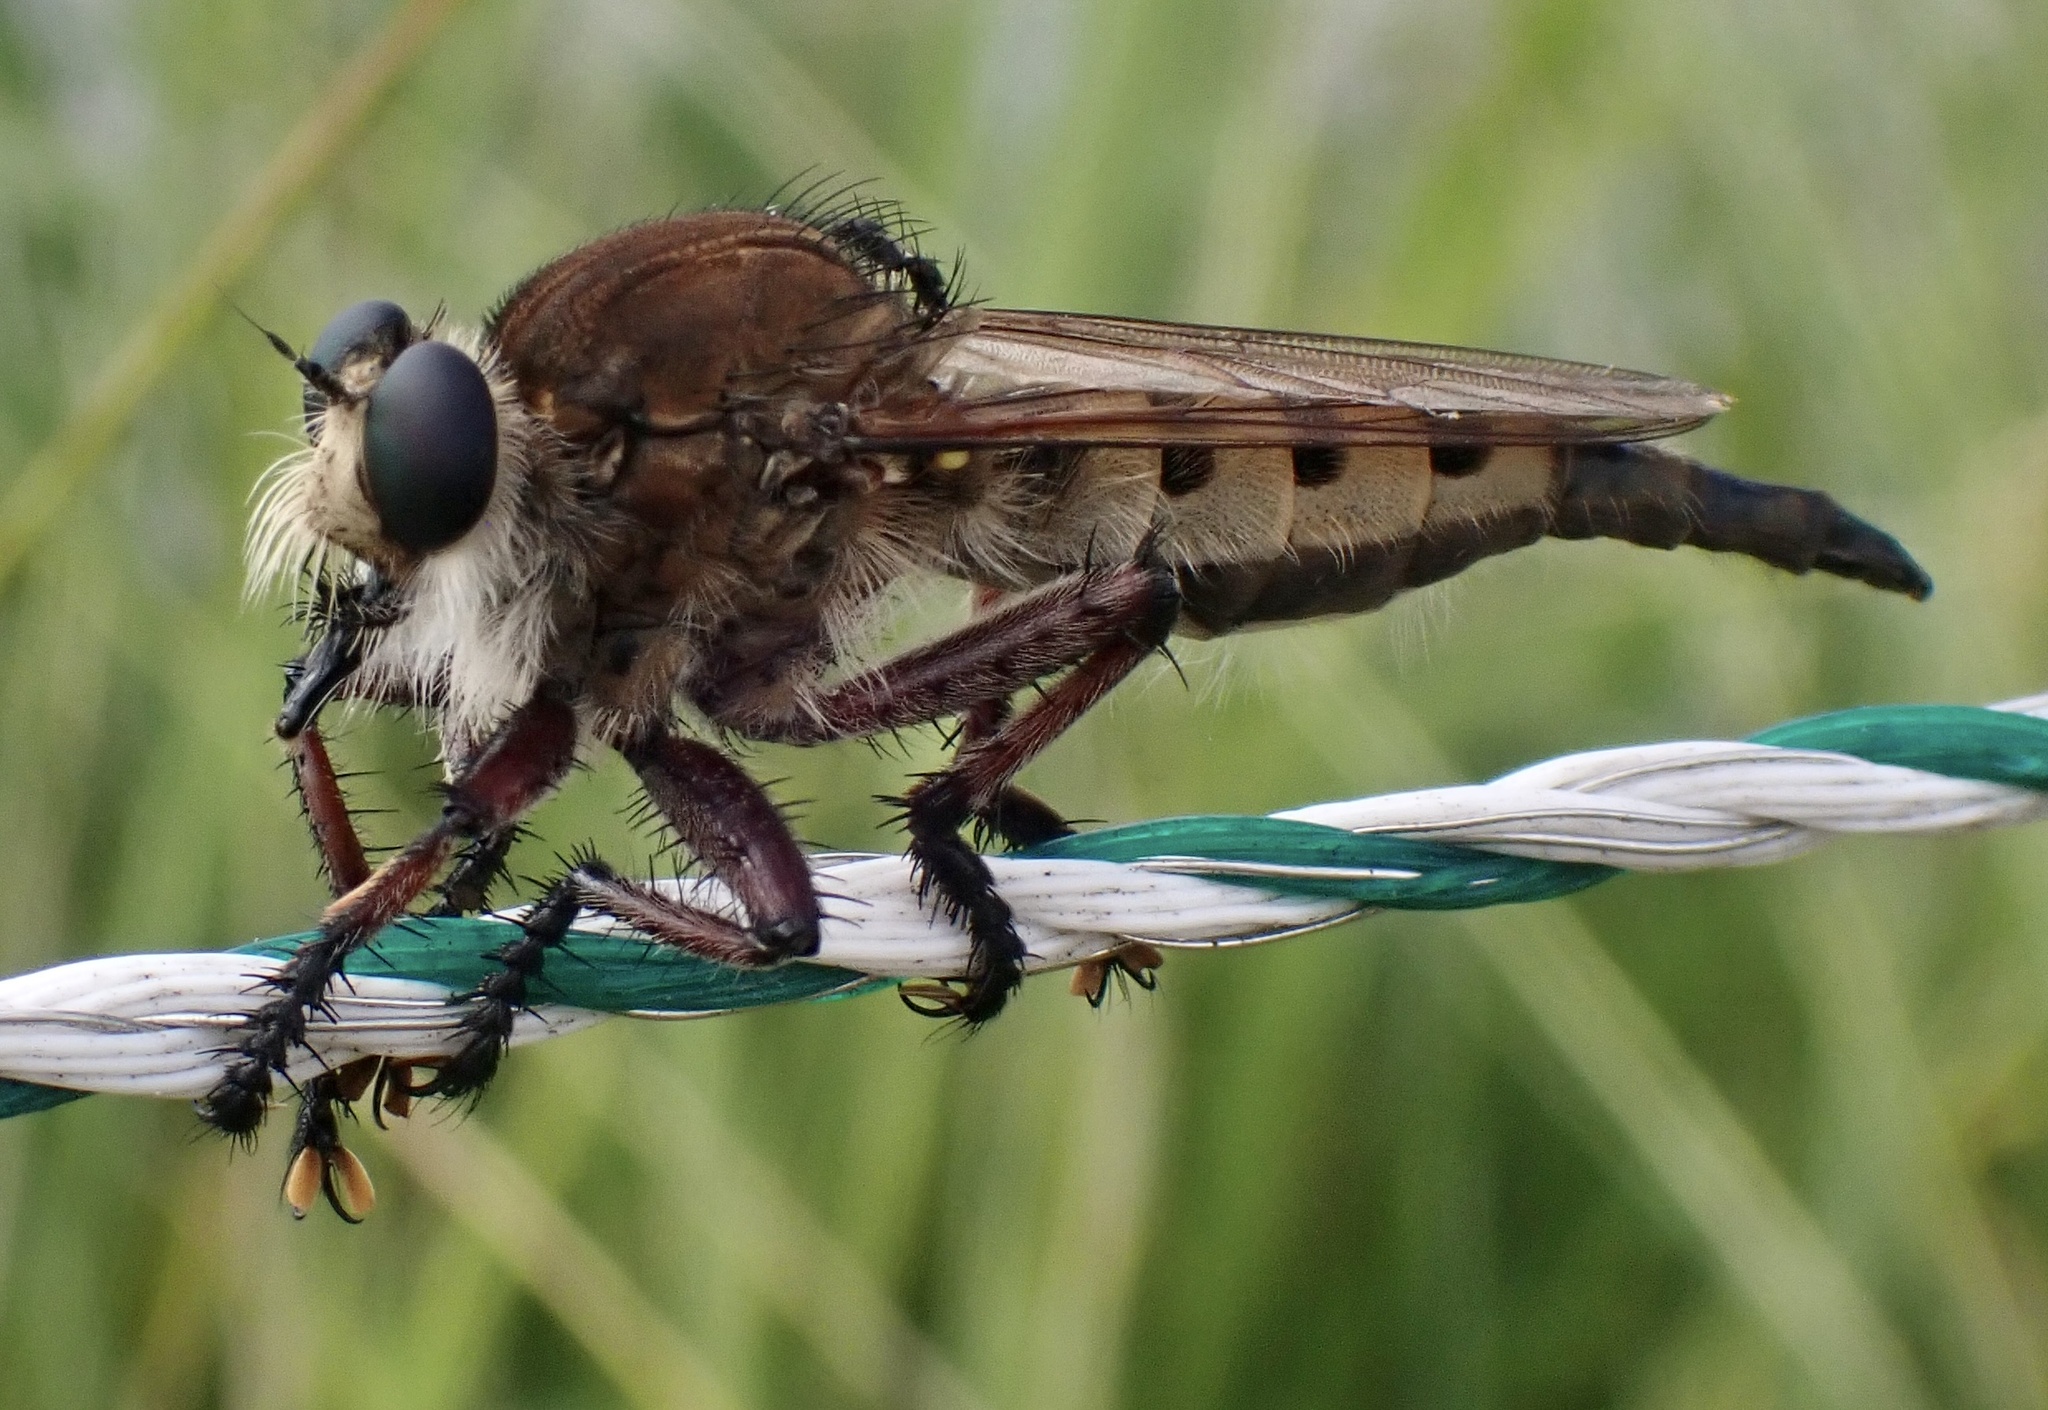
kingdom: Animalia
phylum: Arthropoda
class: Insecta
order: Diptera
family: Asilidae
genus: Promachus
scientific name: Promachus hinei
